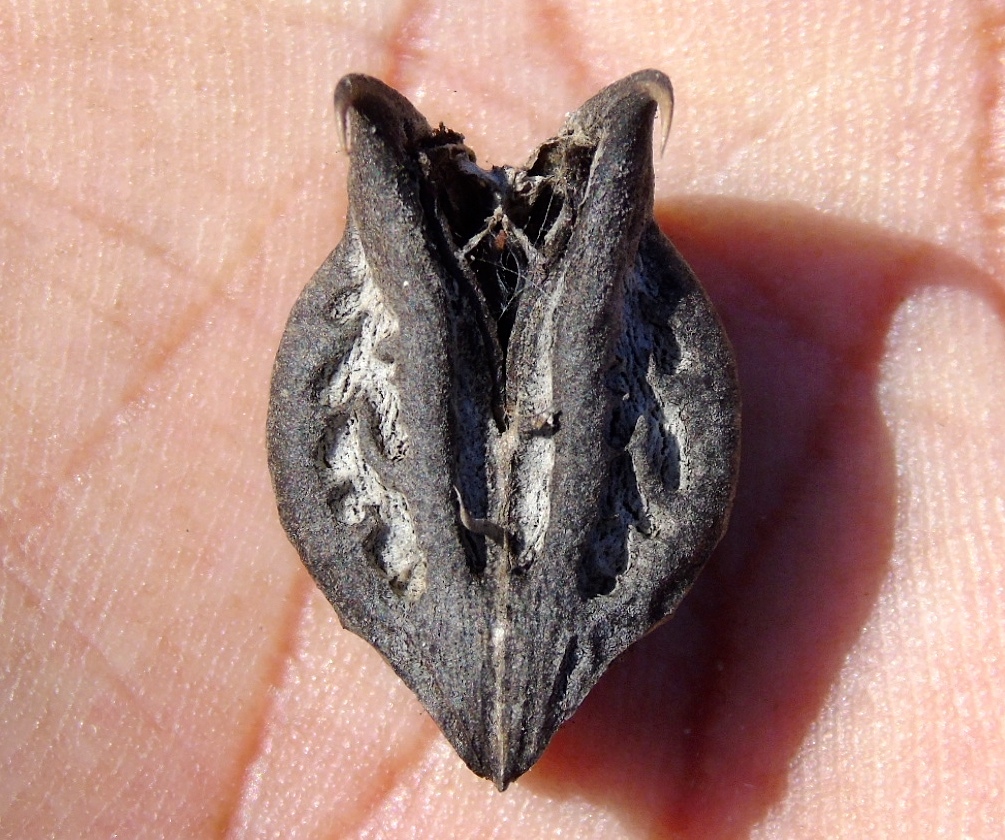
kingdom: Plantae
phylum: Tracheophyta
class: Magnoliopsida
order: Lamiales
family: Martyniaceae
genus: Martynia
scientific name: Martynia annua
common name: Tiger's-claw
